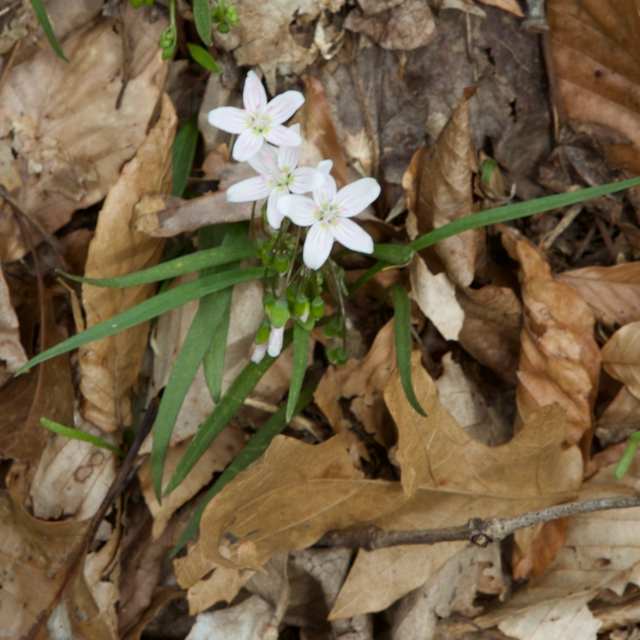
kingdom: Plantae
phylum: Tracheophyta
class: Magnoliopsida
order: Caryophyllales
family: Montiaceae
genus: Claytonia
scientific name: Claytonia virginica
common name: Virginia springbeauty
